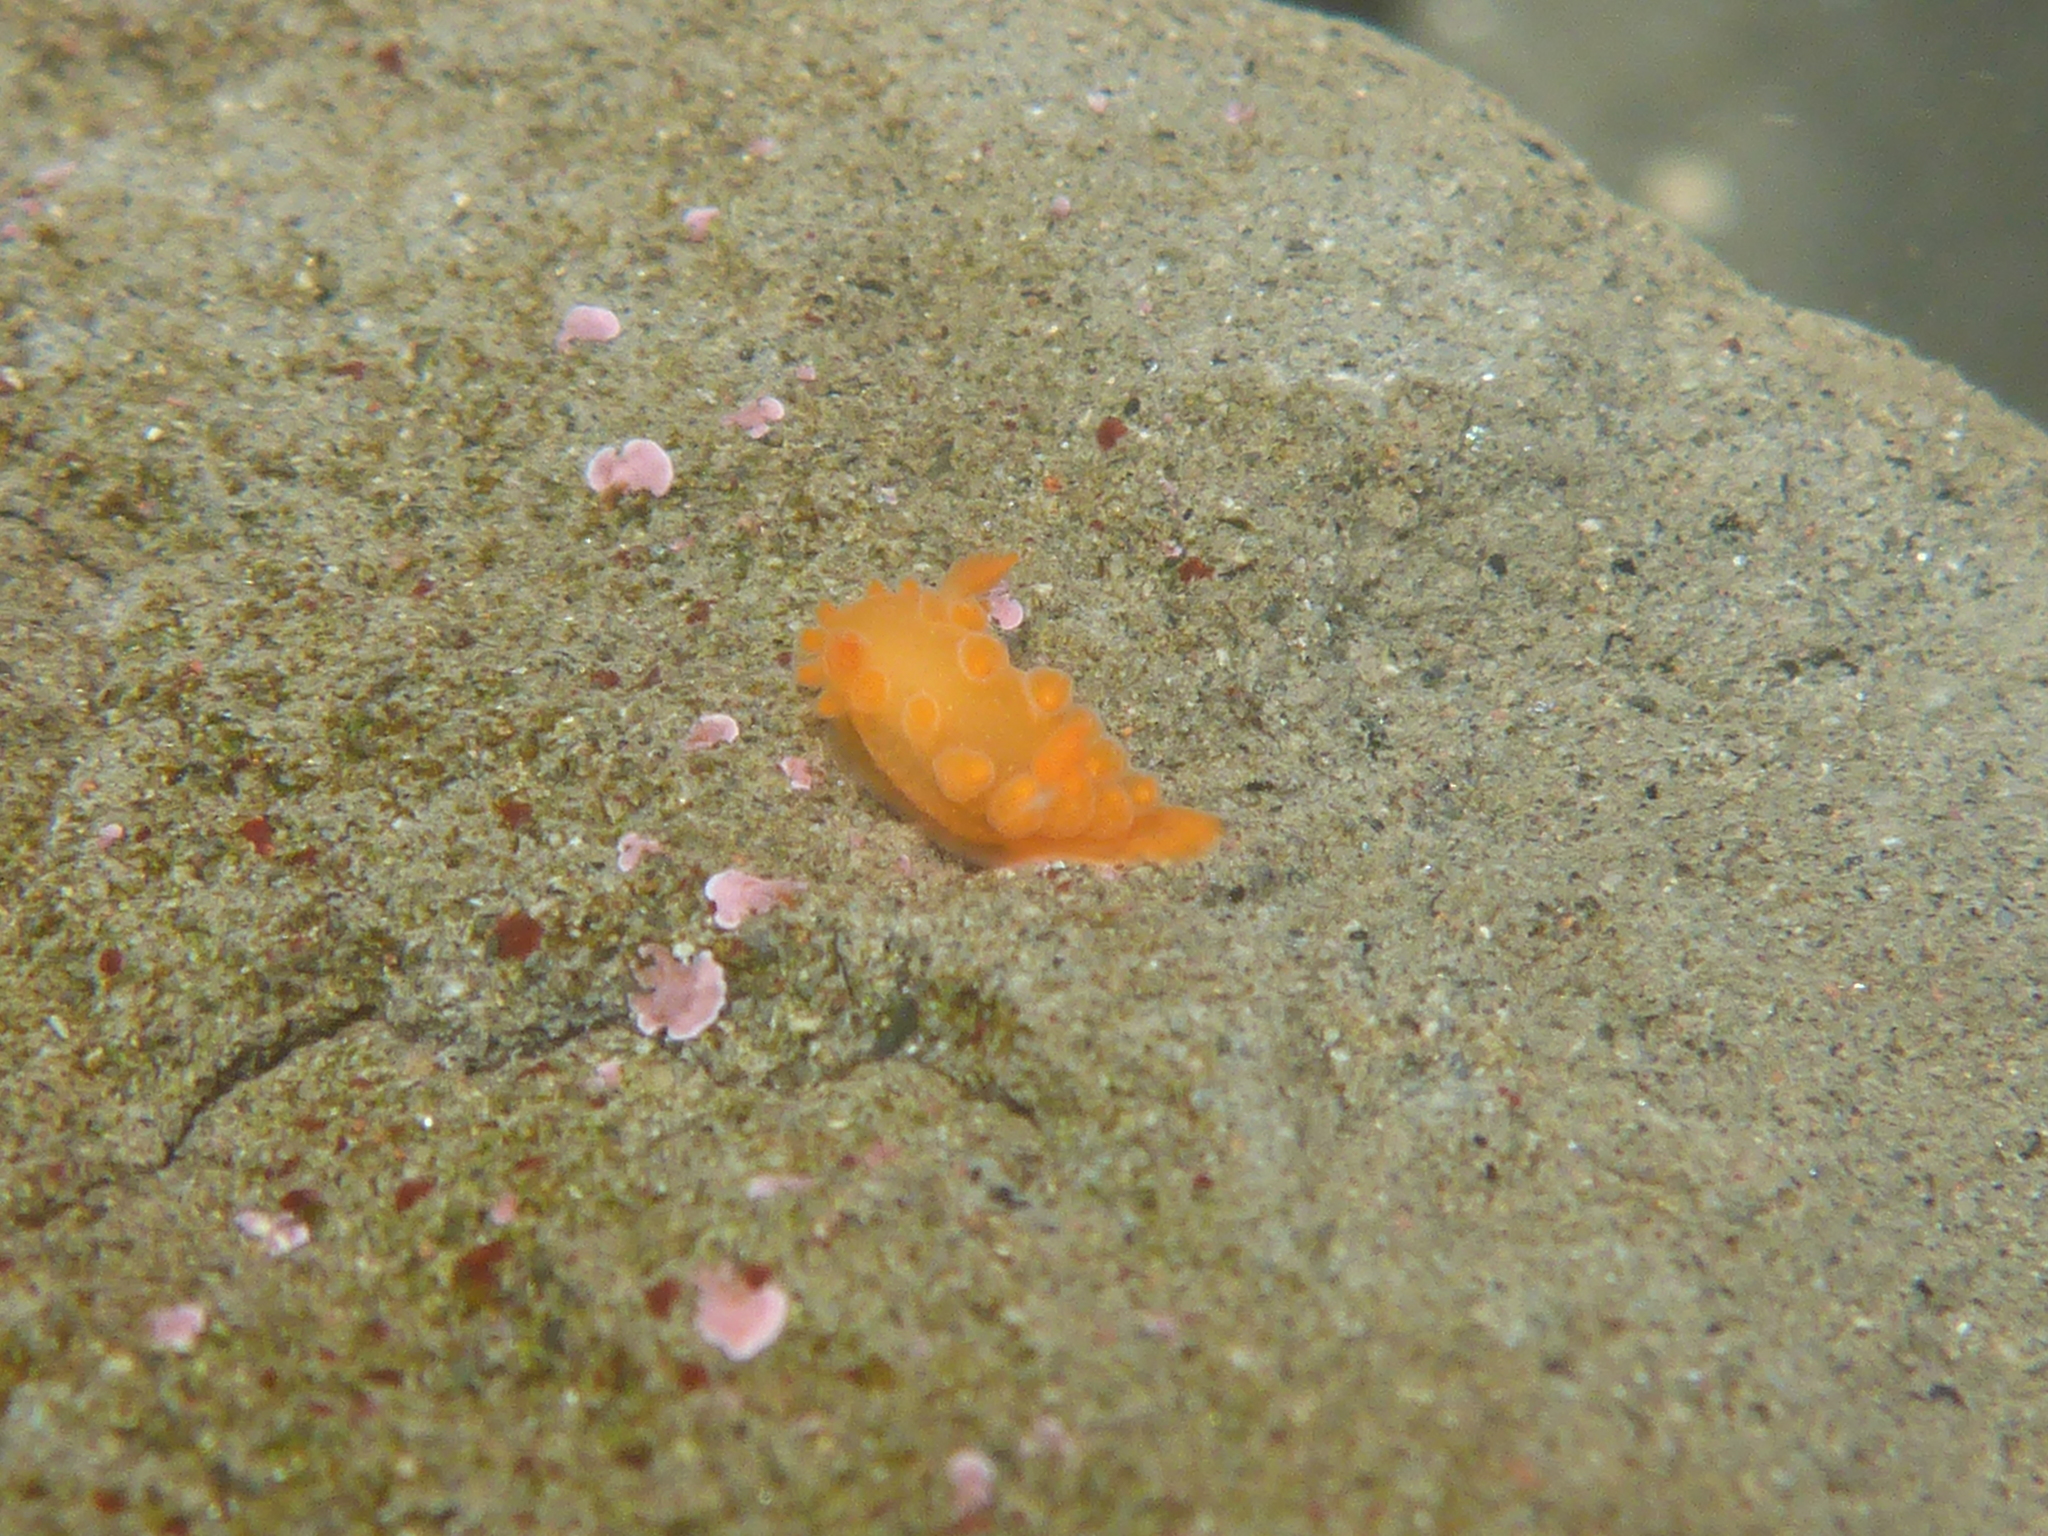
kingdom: Animalia
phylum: Mollusca
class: Gastropoda
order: Nudibranchia
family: Polyceridae
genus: Triopha
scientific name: Triopha maculata
